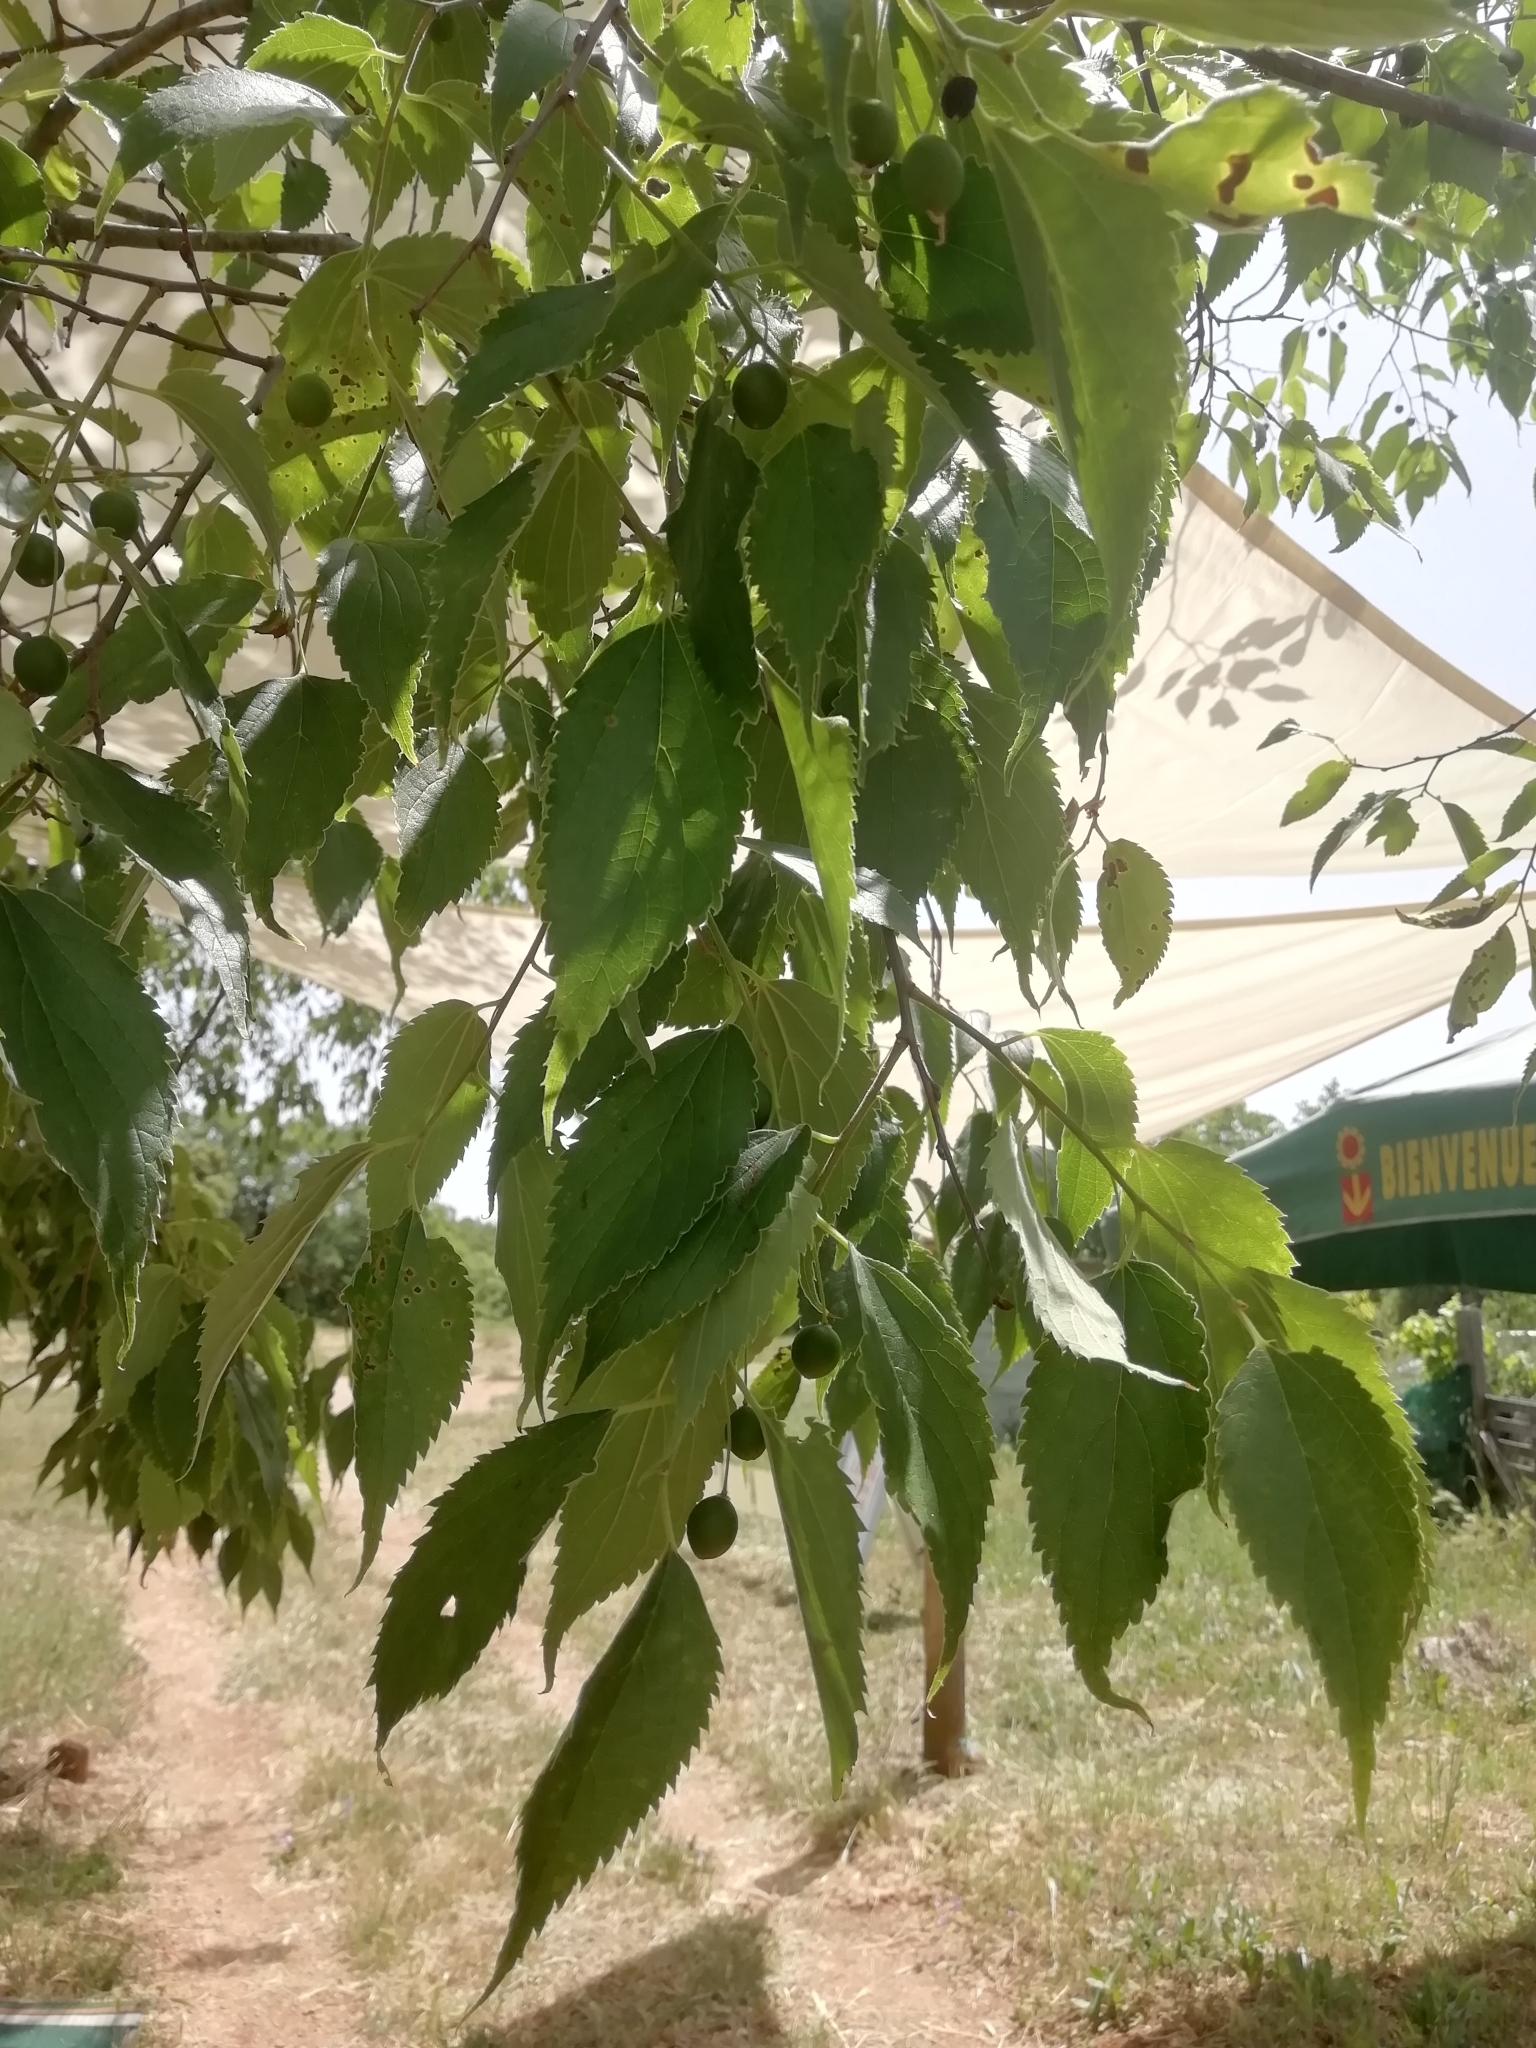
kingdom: Plantae
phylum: Tracheophyta
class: Magnoliopsida
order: Rosales
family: Cannabaceae
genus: Celtis
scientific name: Celtis australis
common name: European hackberry
